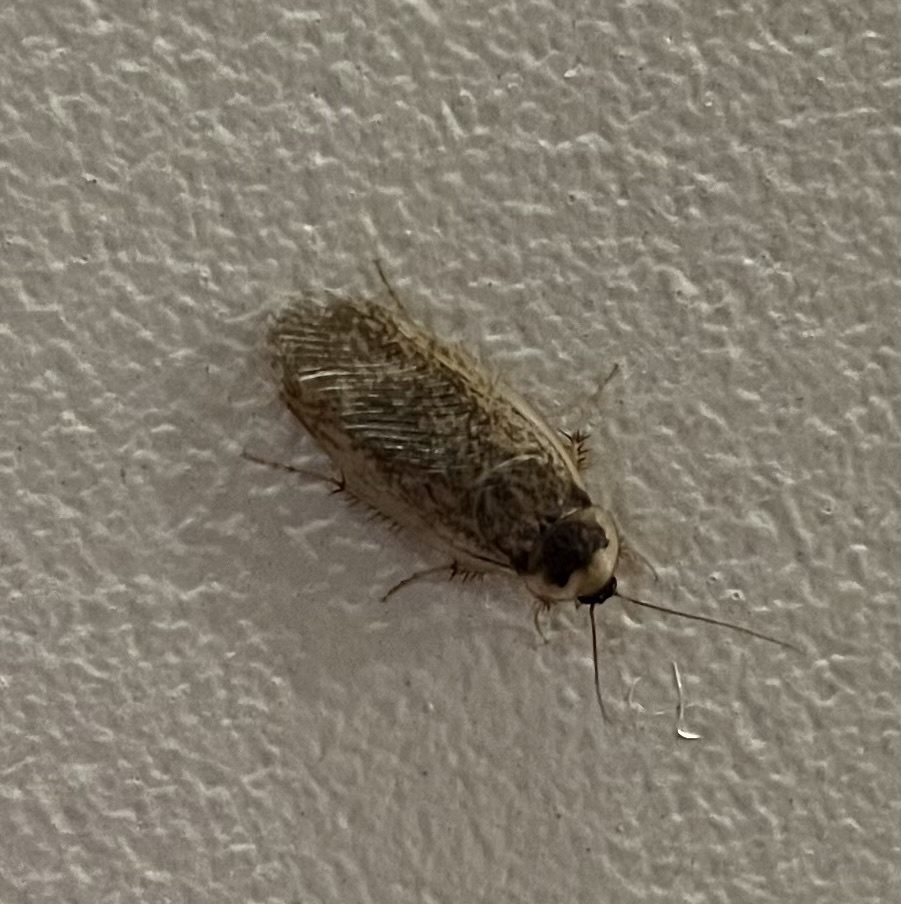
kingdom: Animalia
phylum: Arthropoda
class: Insecta
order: Blattodea
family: Corydiidae
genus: Arenivaga
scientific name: Arenivaga bolliana
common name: Boll's sand cockroach
